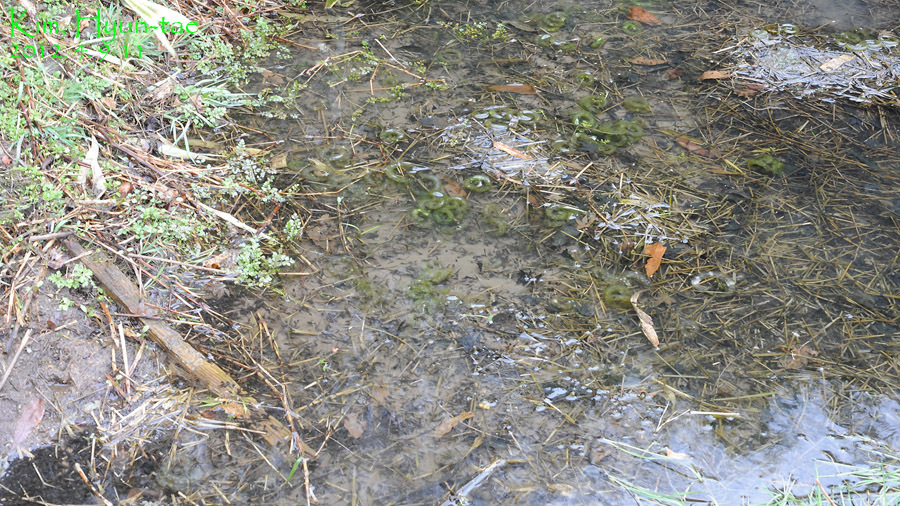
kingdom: Animalia
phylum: Chordata
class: Amphibia
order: Caudata
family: Hynobiidae
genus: Hynobius
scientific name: Hynobius leechii
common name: Gensan salamander
